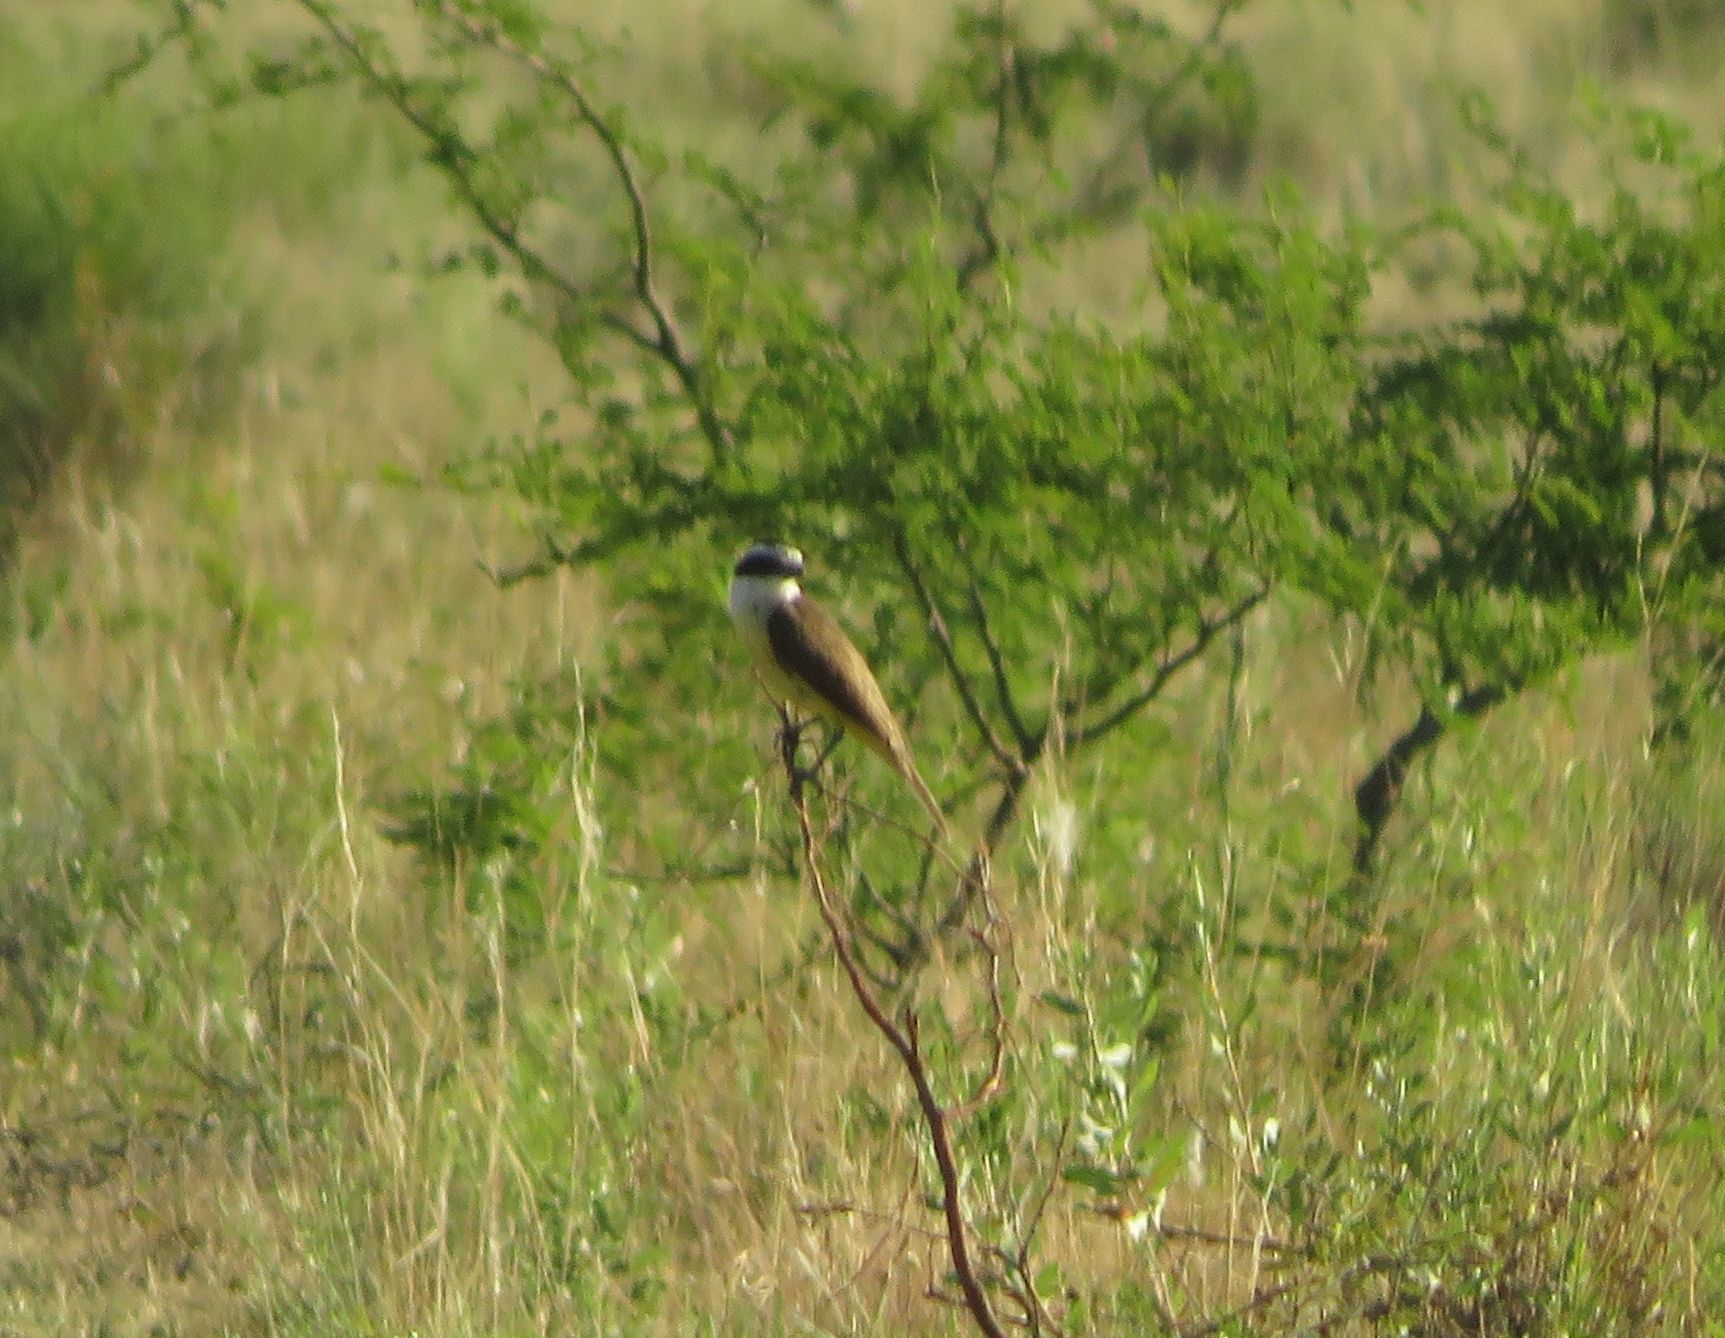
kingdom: Animalia
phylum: Chordata
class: Aves
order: Passeriformes
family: Tyrannidae
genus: Pitangus
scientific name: Pitangus sulphuratus
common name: Great kiskadee
